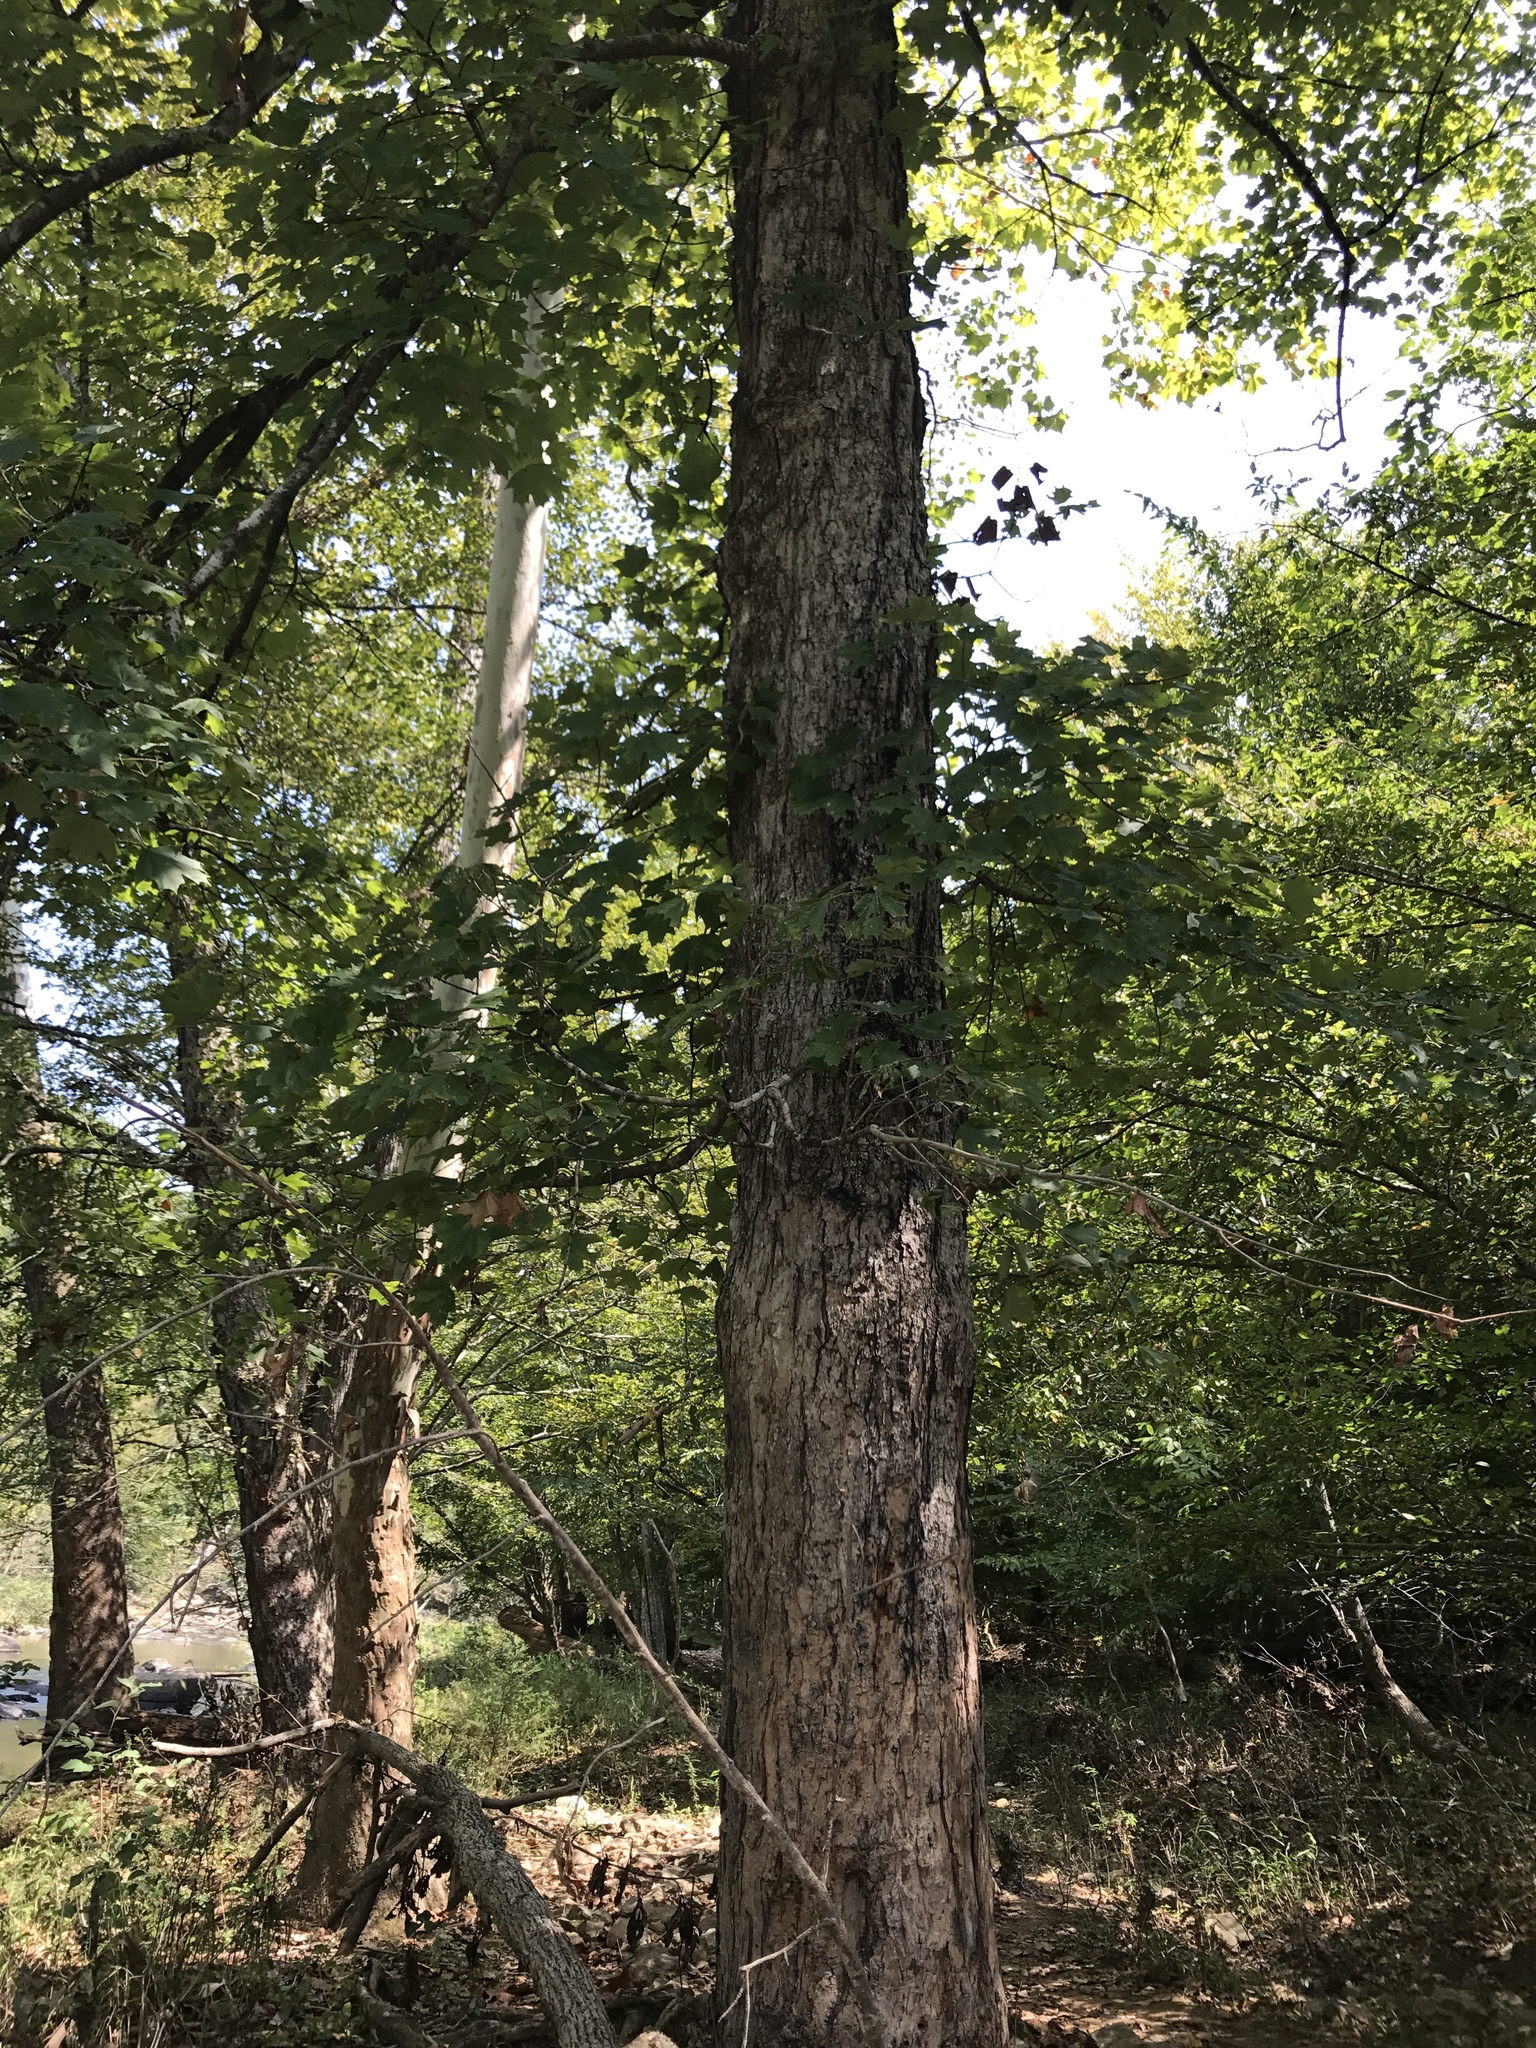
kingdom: Plantae
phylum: Tracheophyta
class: Magnoliopsida
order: Sapindales
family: Sapindaceae
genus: Acer
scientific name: Acer floridanum
